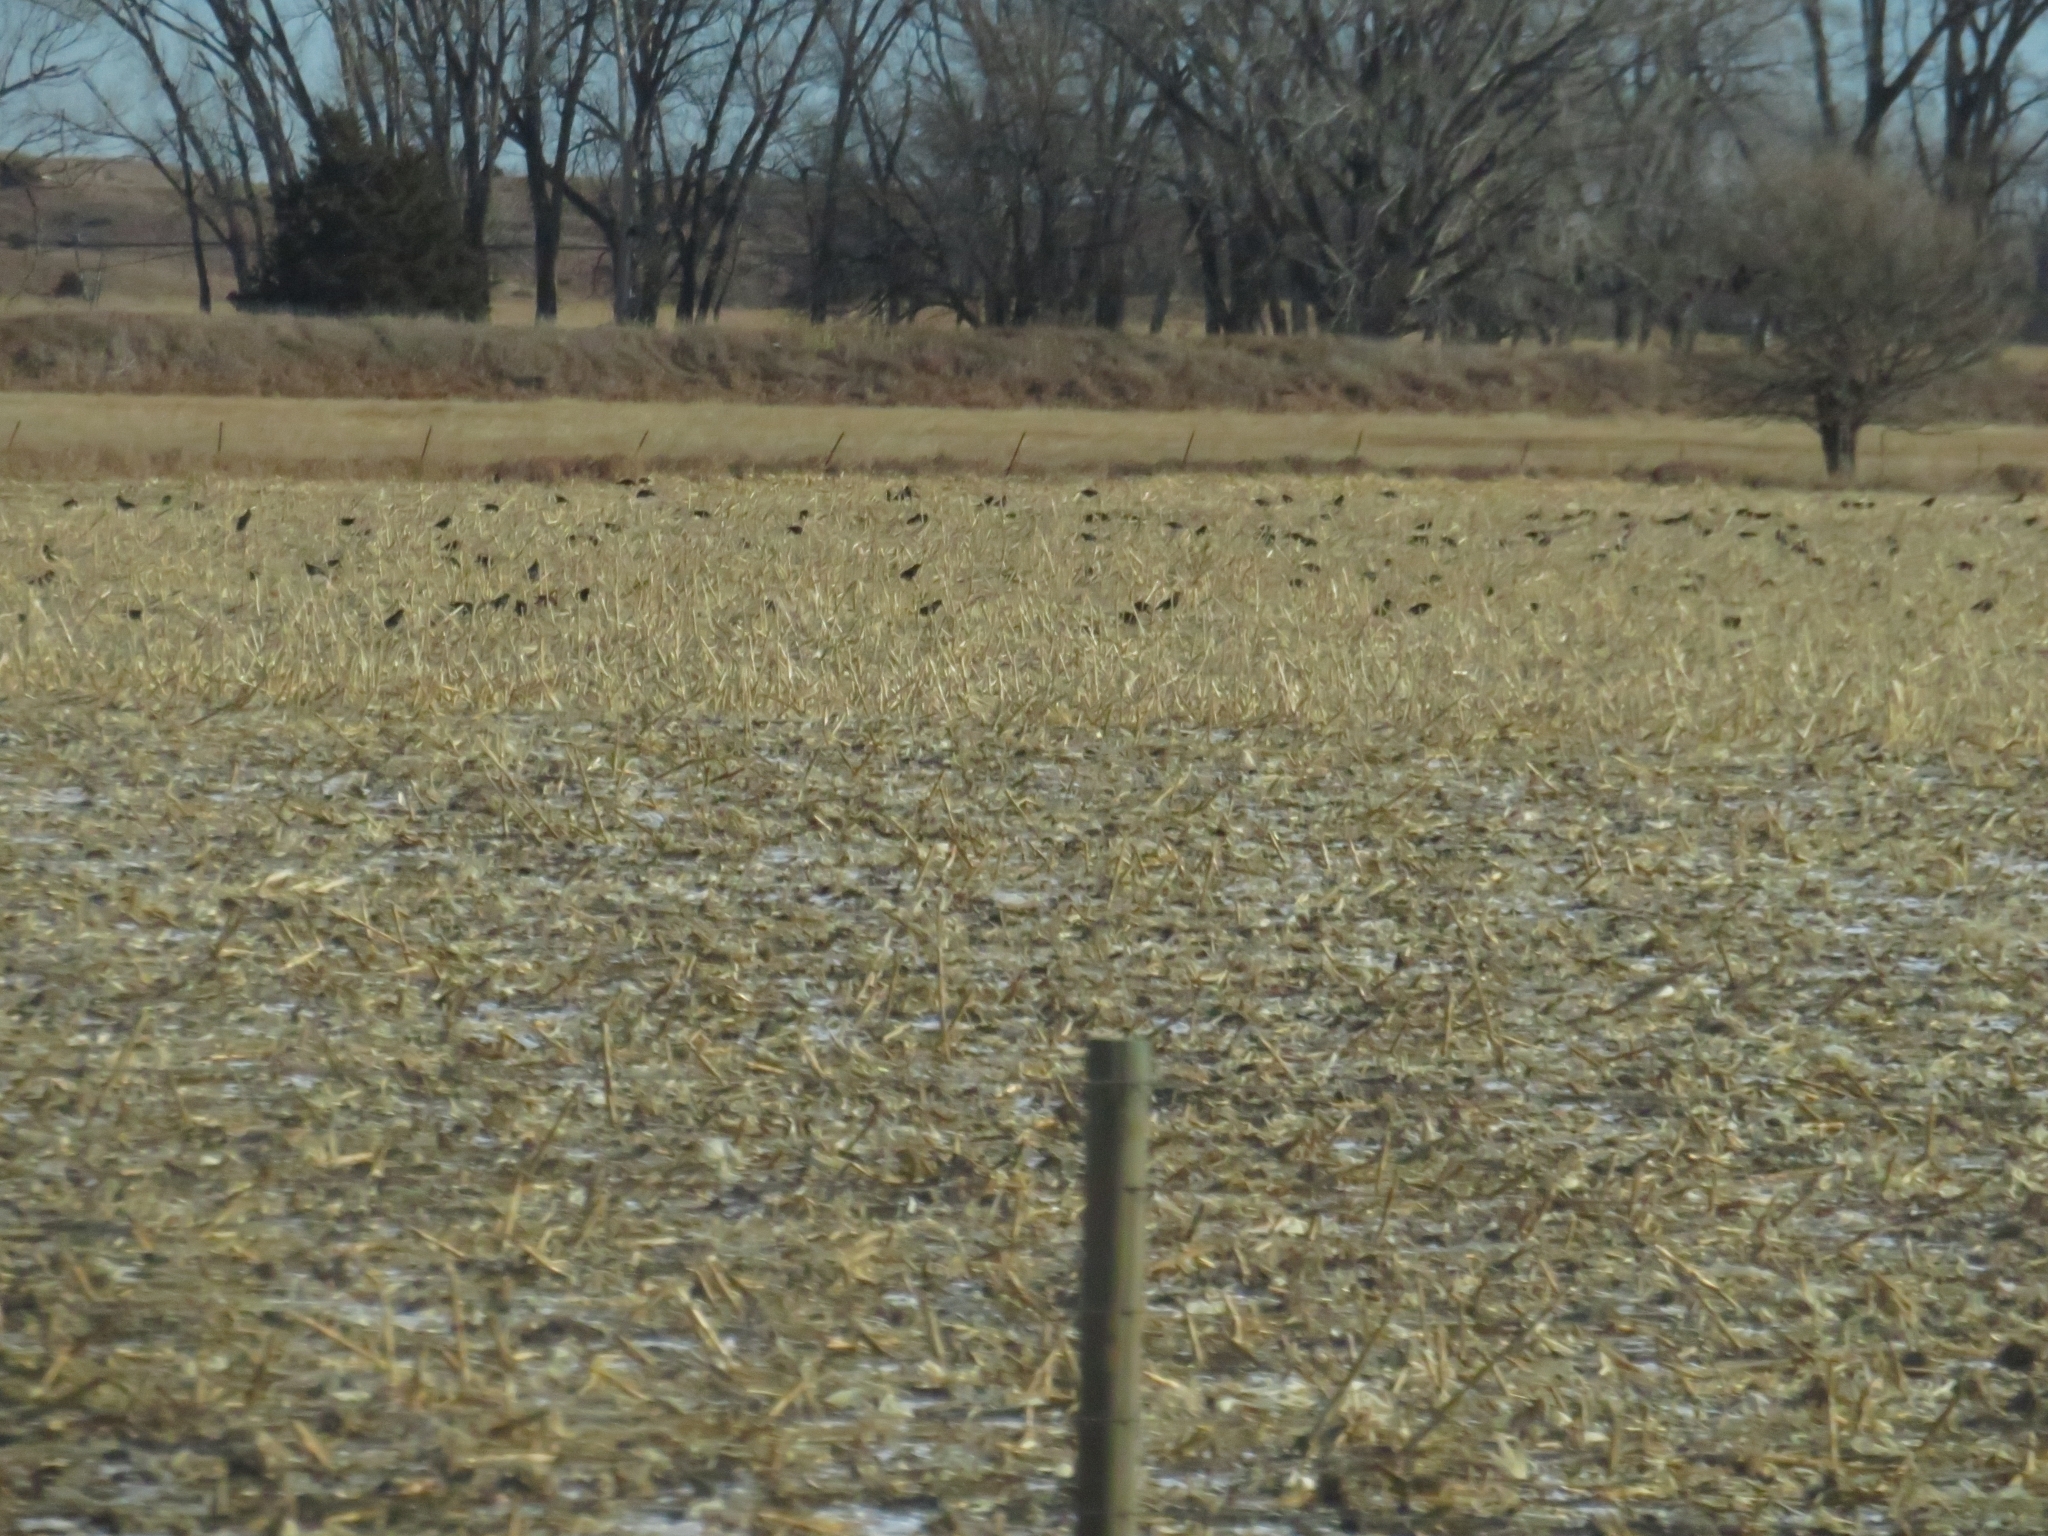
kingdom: Animalia
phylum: Chordata
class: Aves
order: Passeriformes
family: Sturnidae
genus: Sturnus
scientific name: Sturnus vulgaris
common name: Common starling
